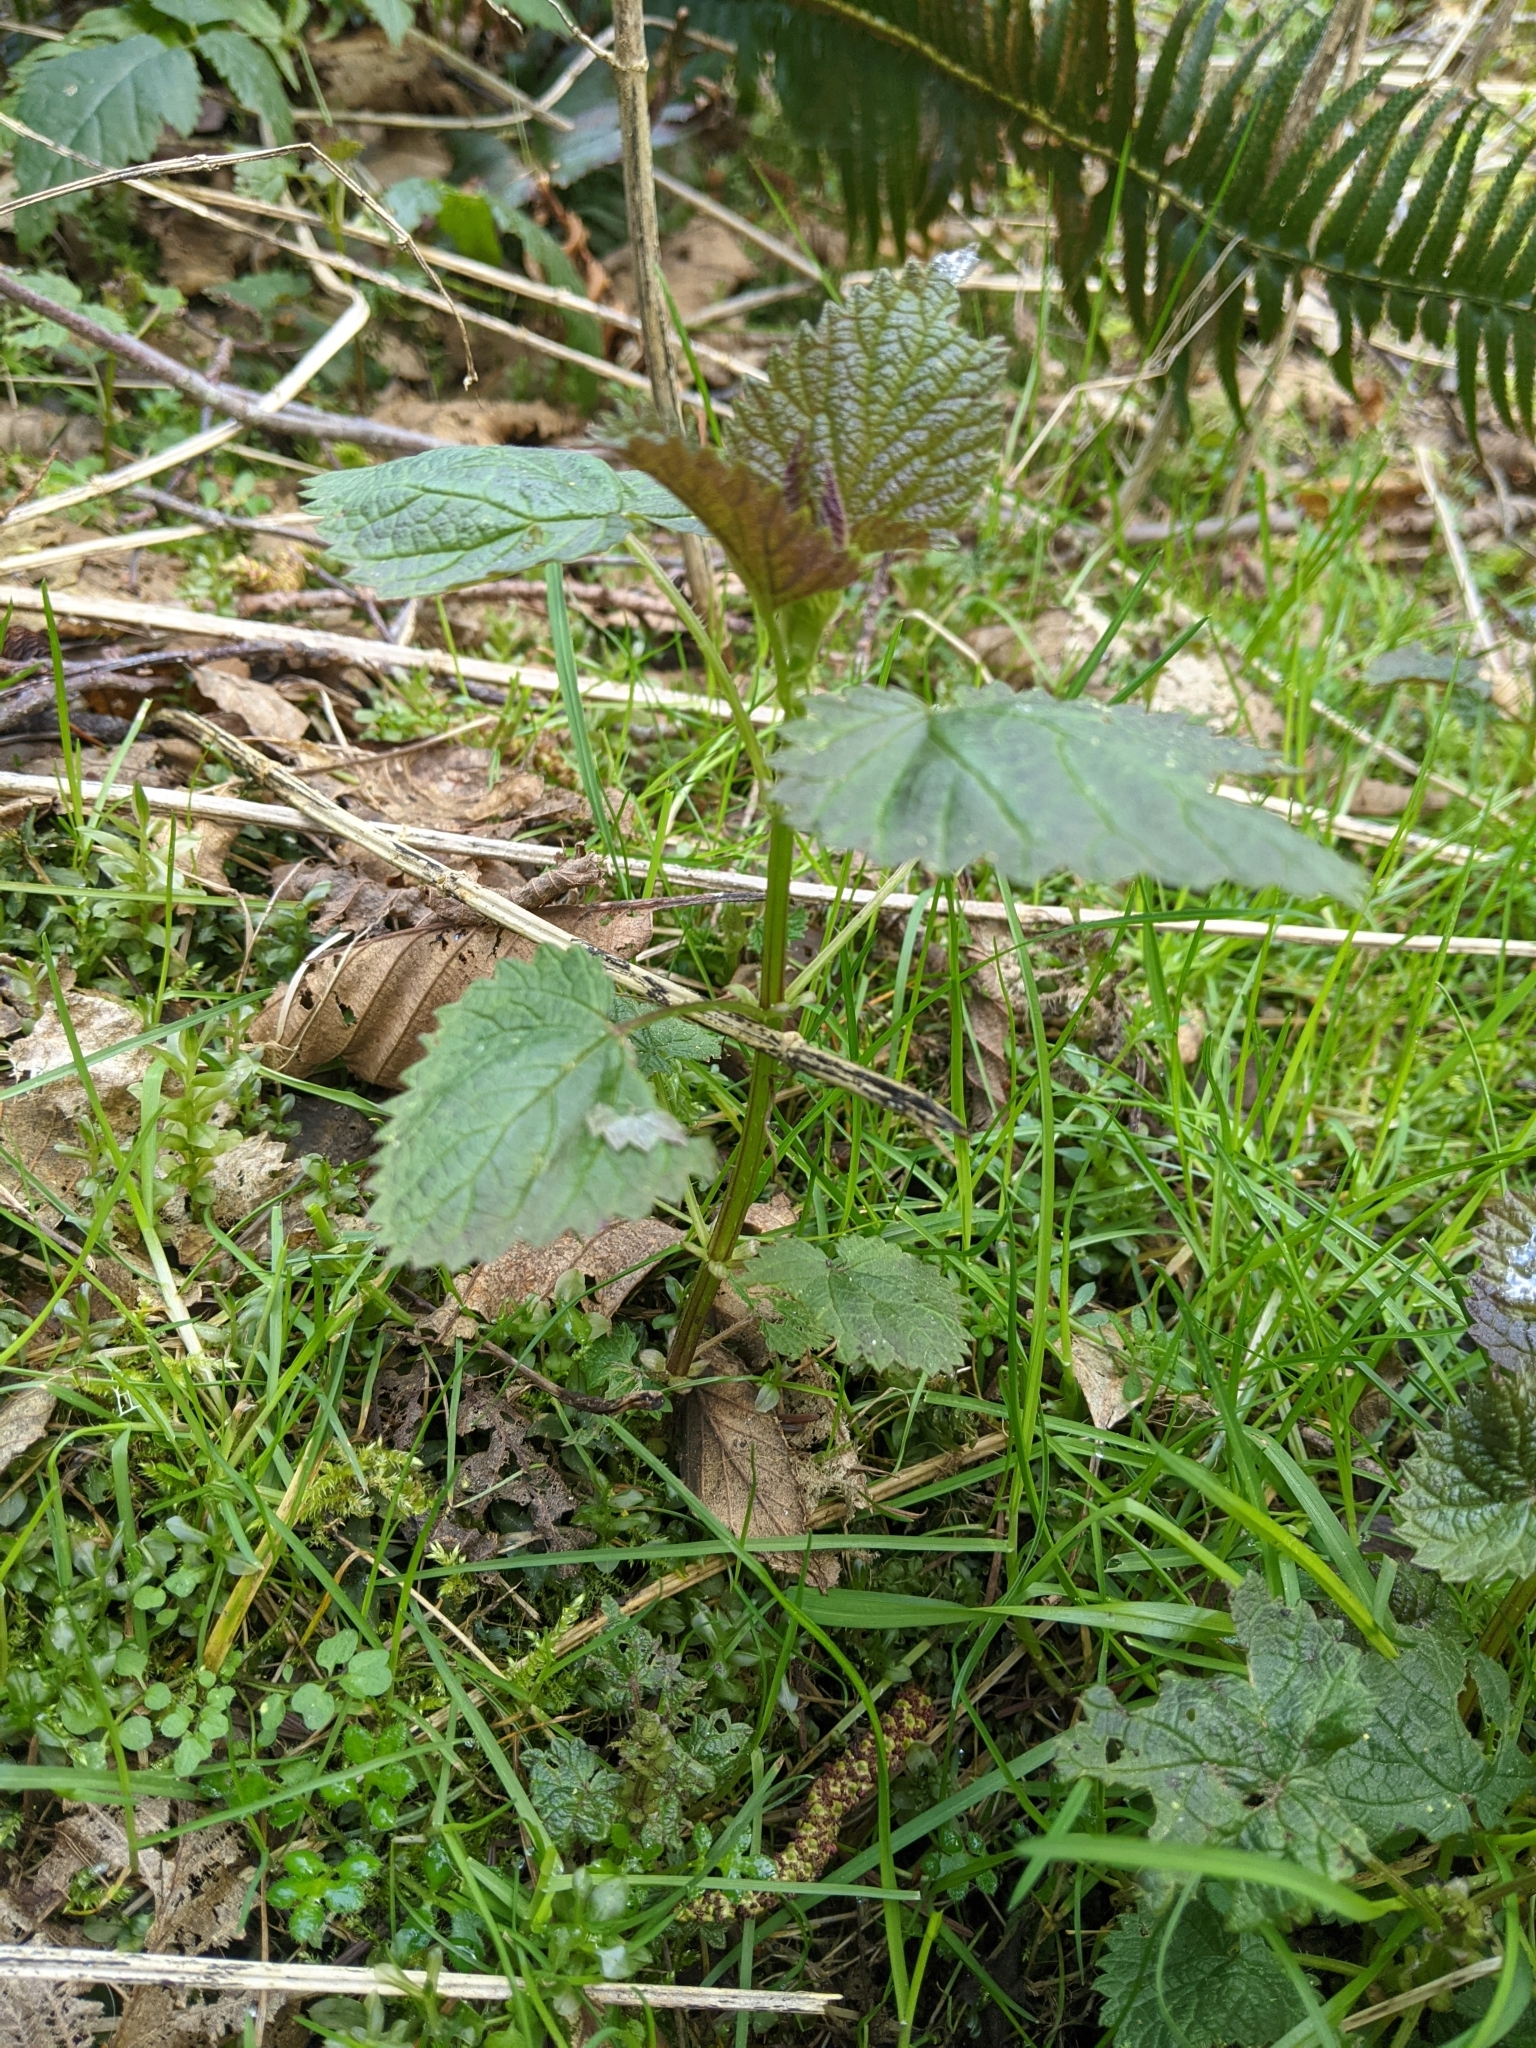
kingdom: Plantae
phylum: Tracheophyta
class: Magnoliopsida
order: Rosales
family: Urticaceae
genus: Urtica
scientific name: Urtica gracilis
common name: Slender stinging nettle
